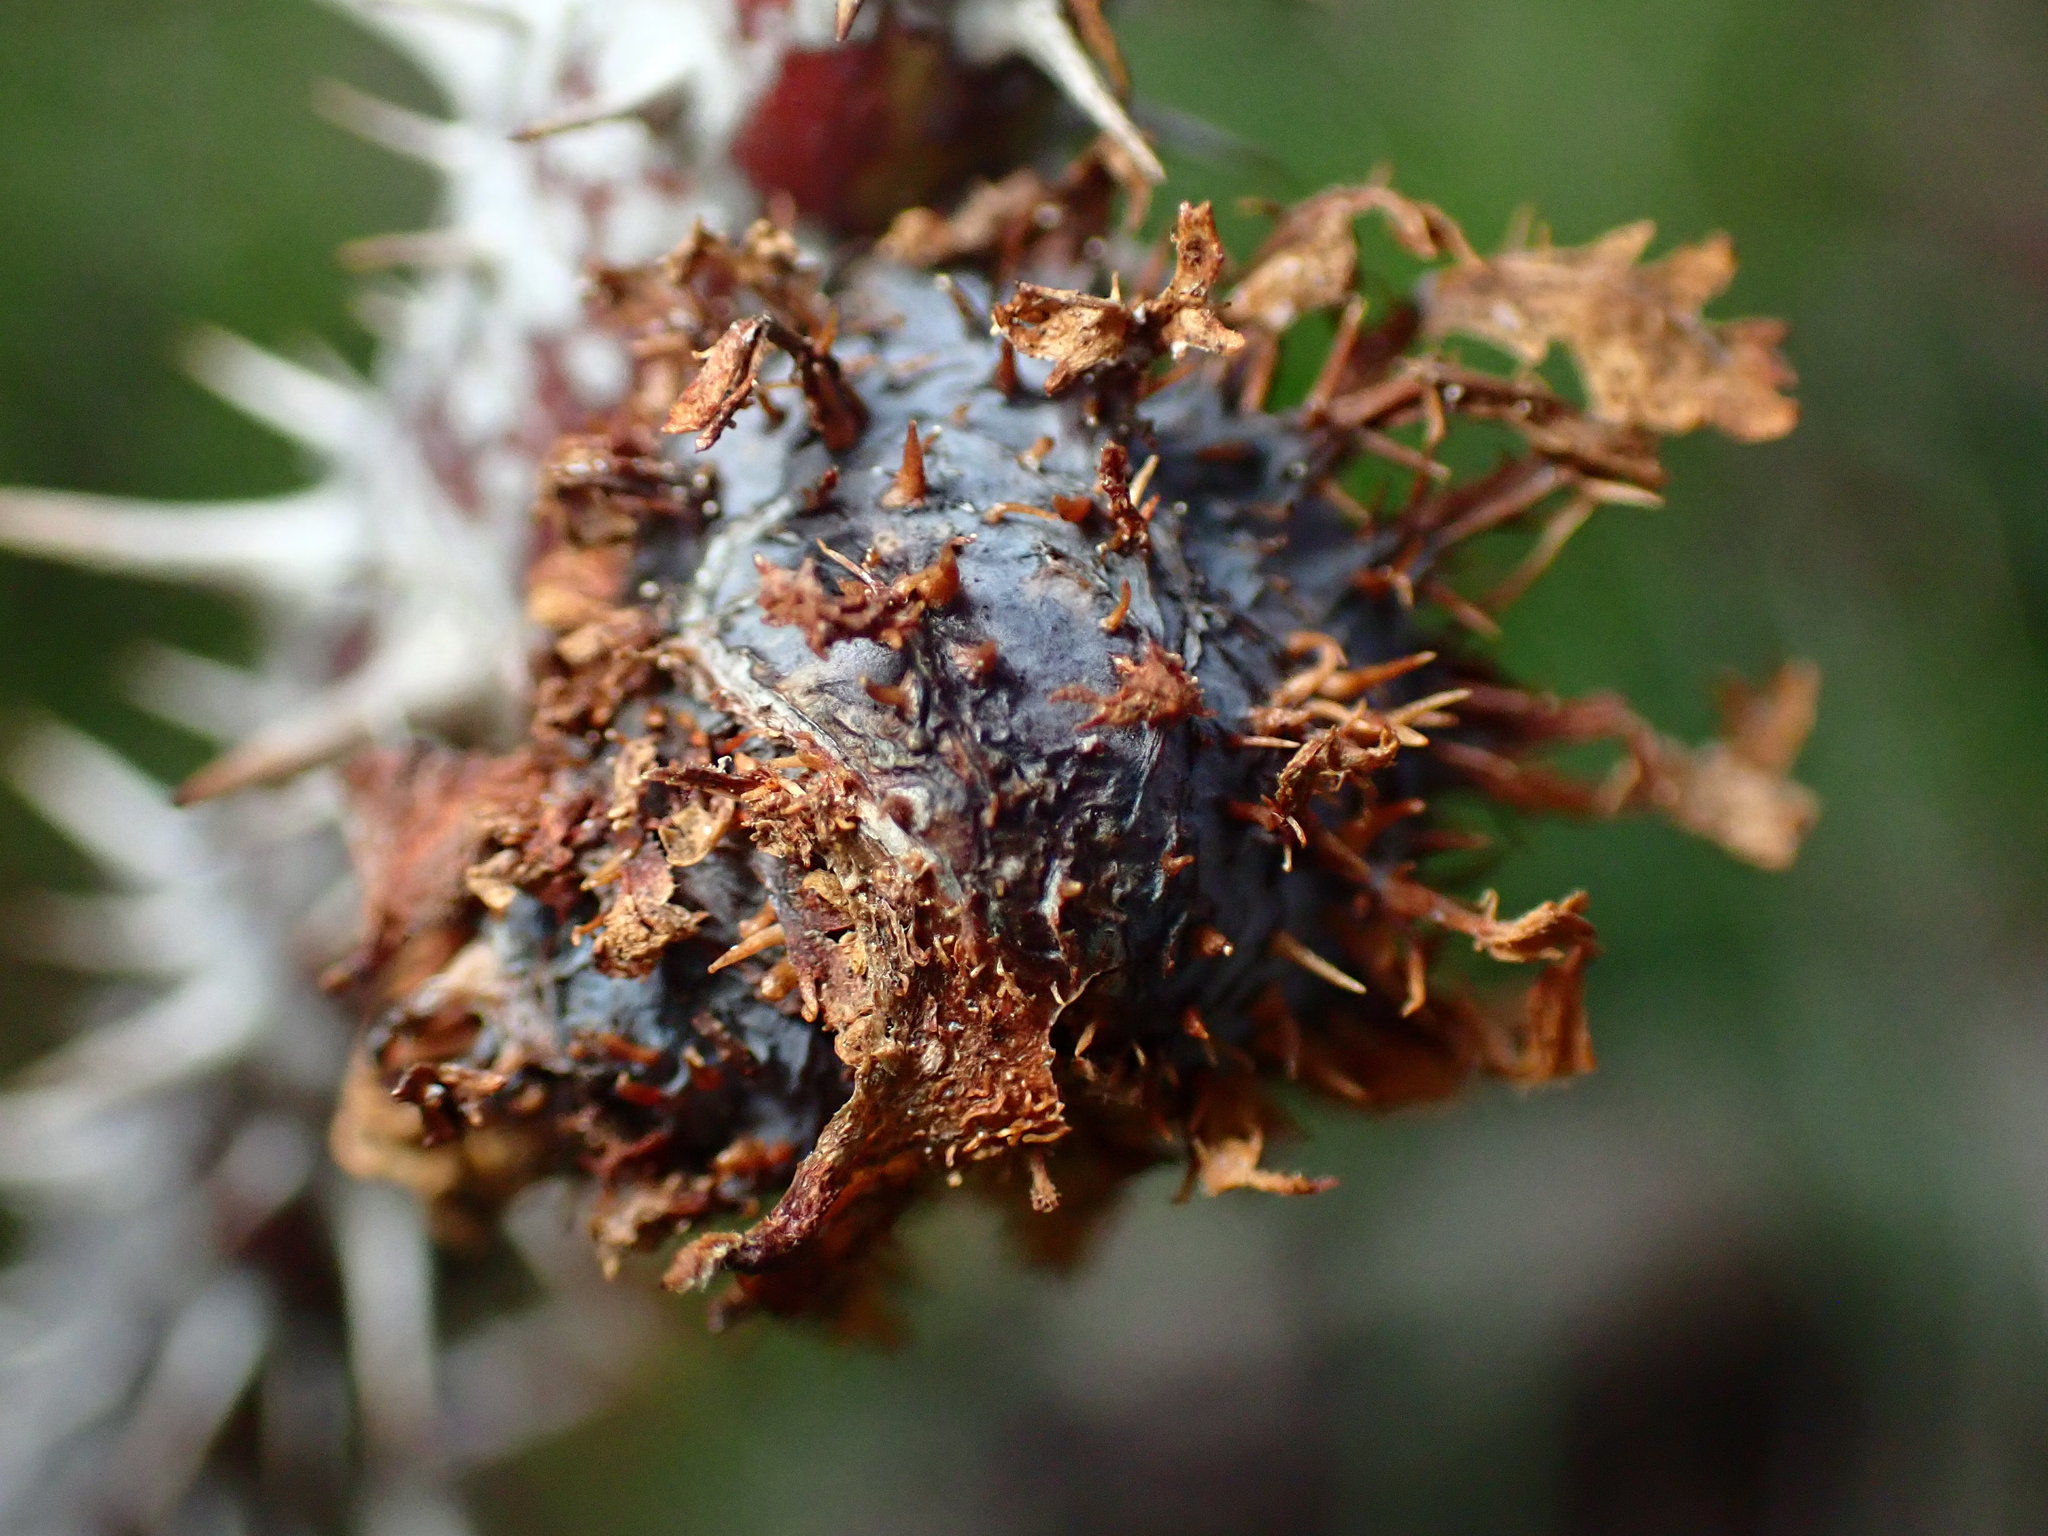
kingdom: Animalia
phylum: Arthropoda
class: Insecta
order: Hymenoptera
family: Cynipidae
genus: Diplolepis
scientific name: Diplolepis californica
